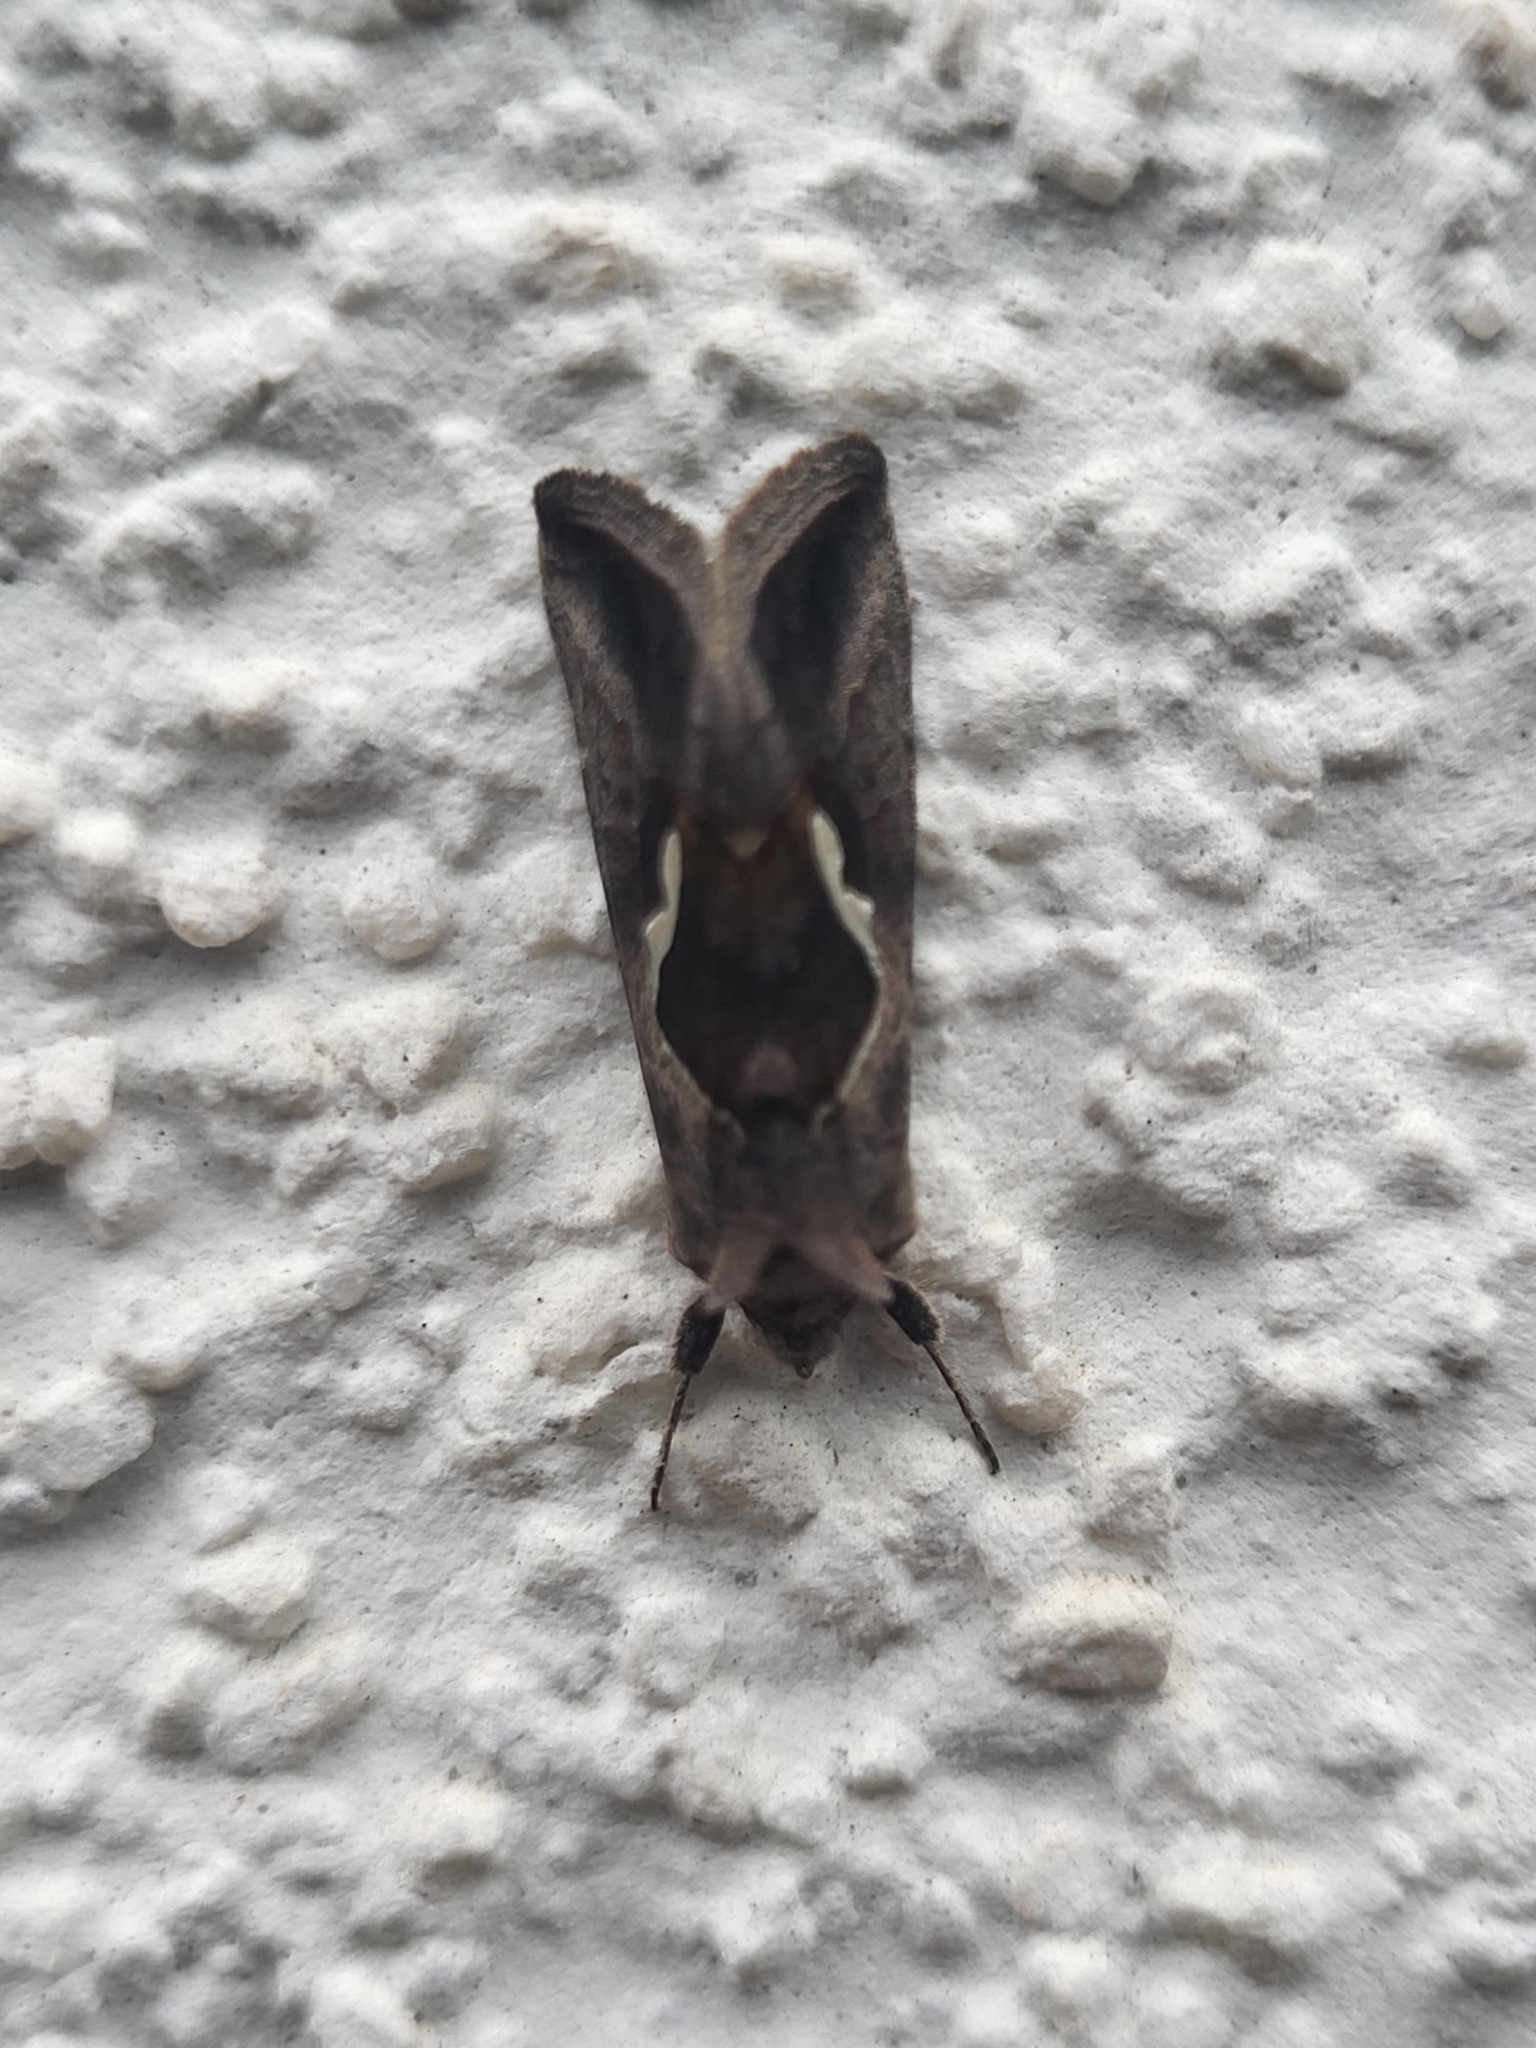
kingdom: Animalia
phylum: Arthropoda
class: Insecta
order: Lepidoptera
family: Noctuidae
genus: Macdunnoughia
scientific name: Macdunnoughia confusa
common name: Dewick's plusia
